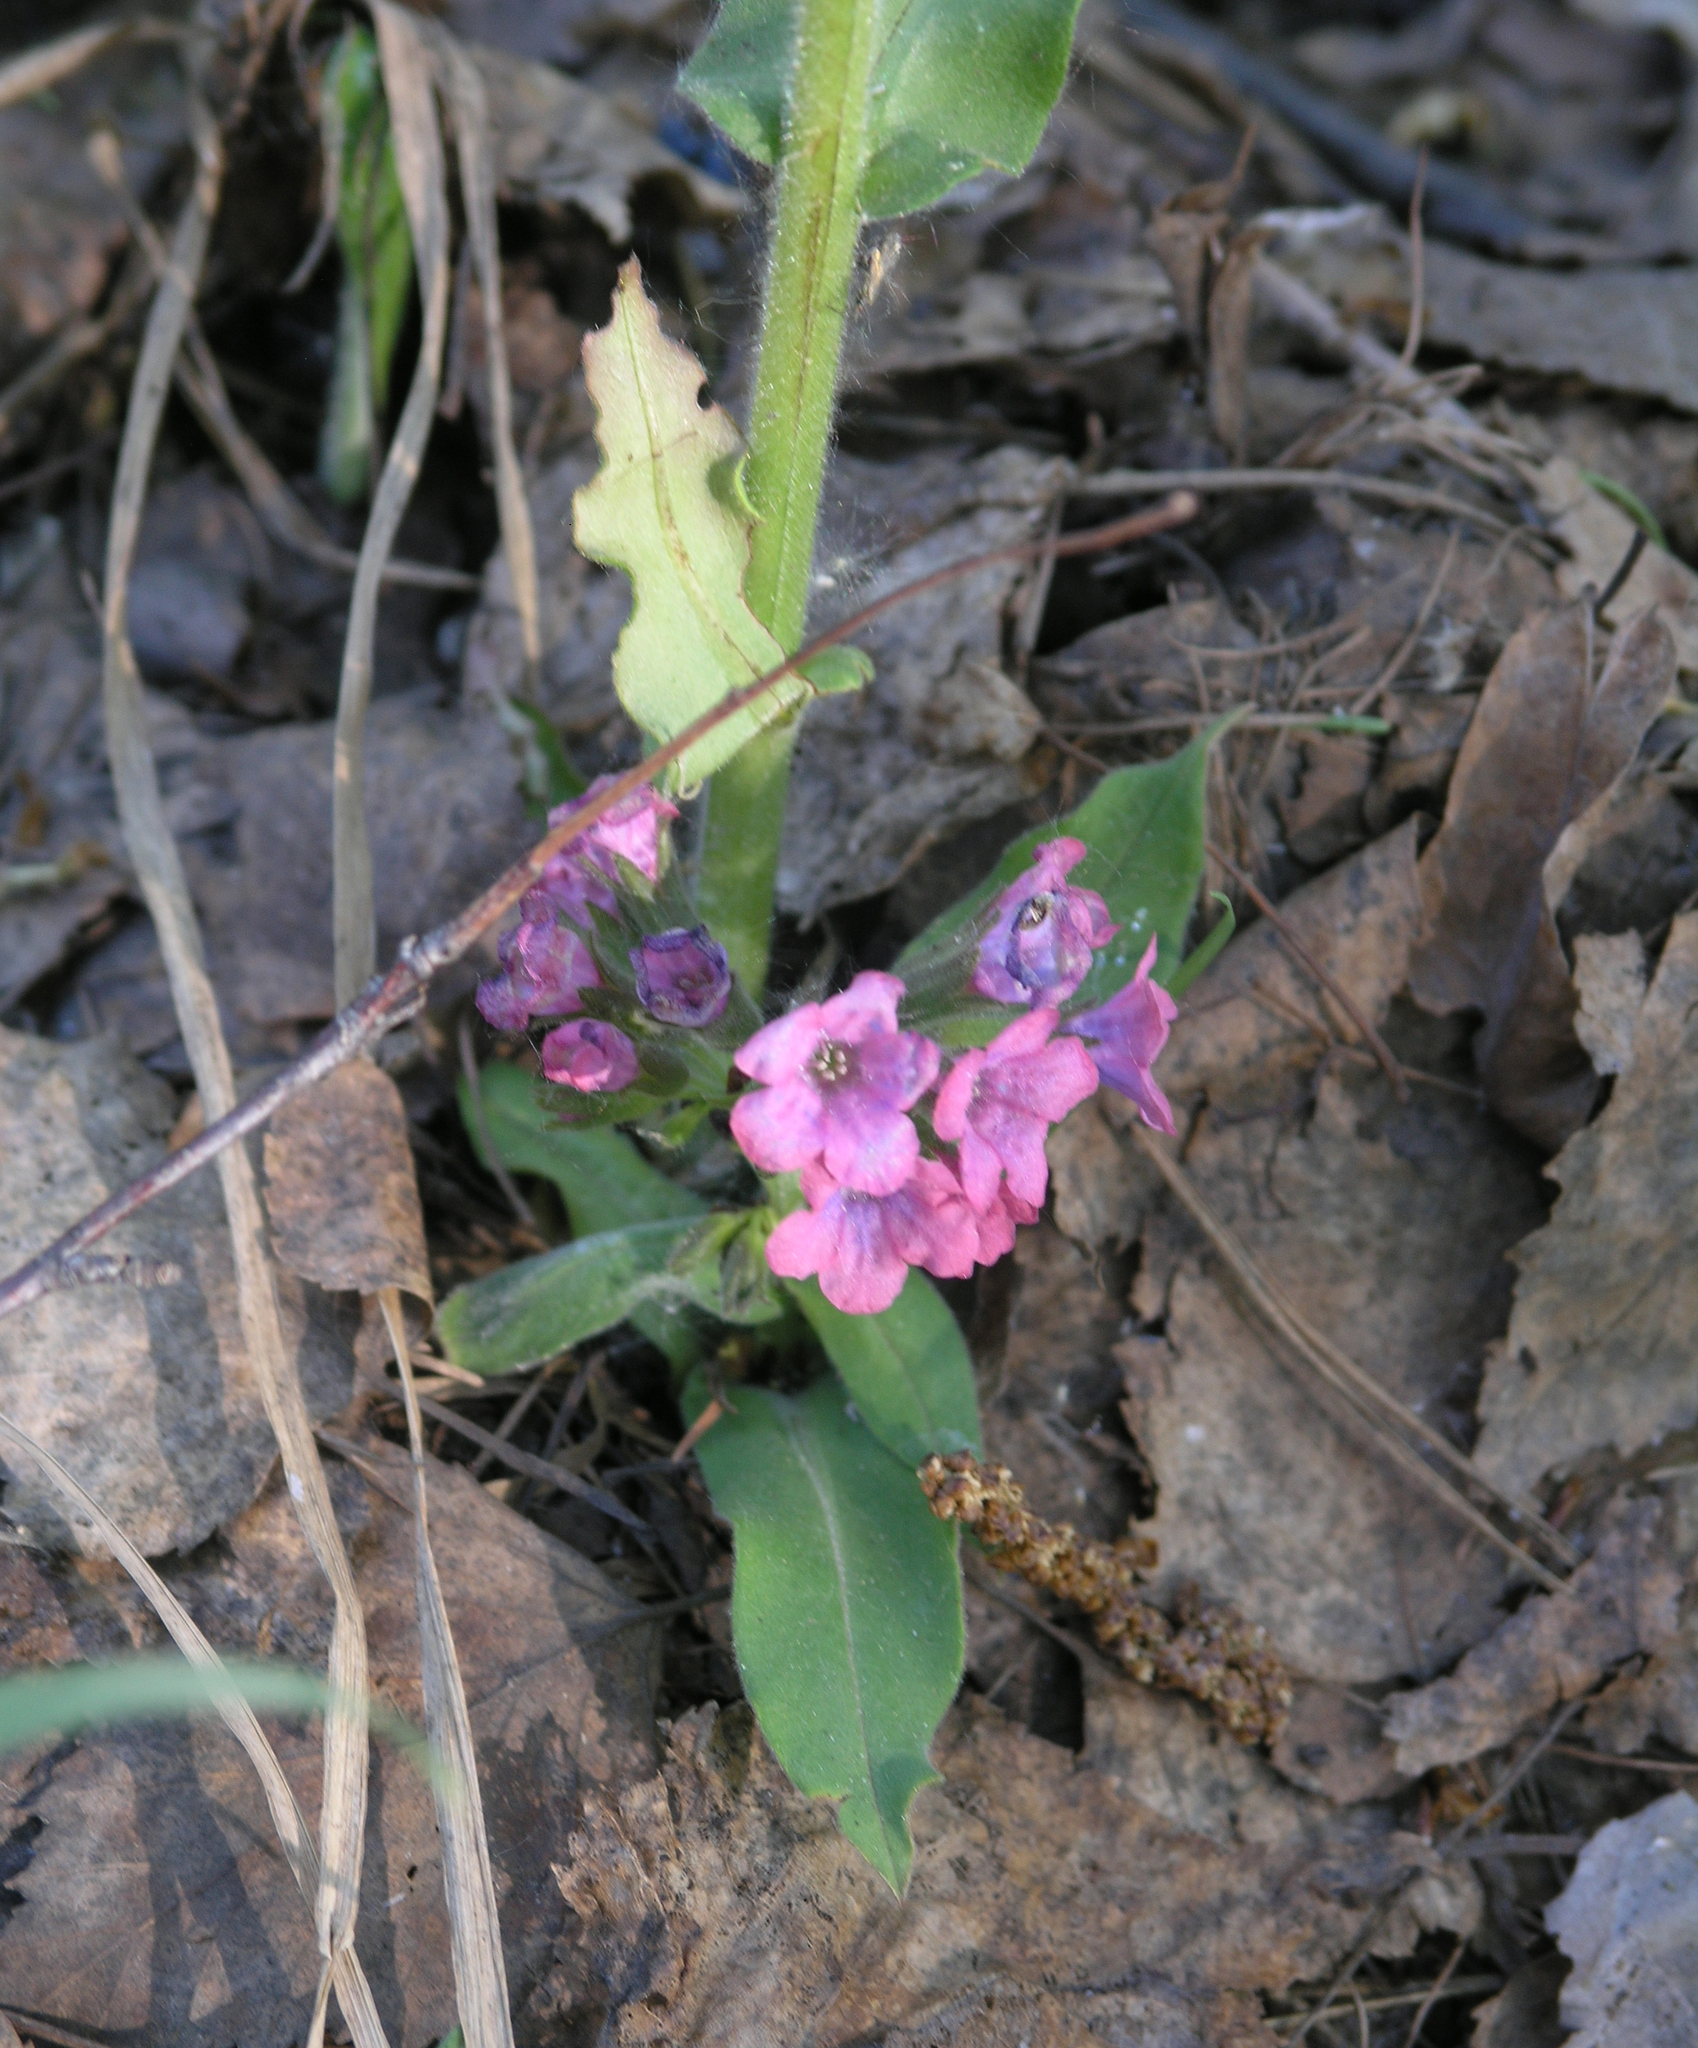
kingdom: Plantae
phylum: Tracheophyta
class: Magnoliopsida
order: Boraginales
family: Boraginaceae
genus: Pulmonaria
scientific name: Pulmonaria mollis
